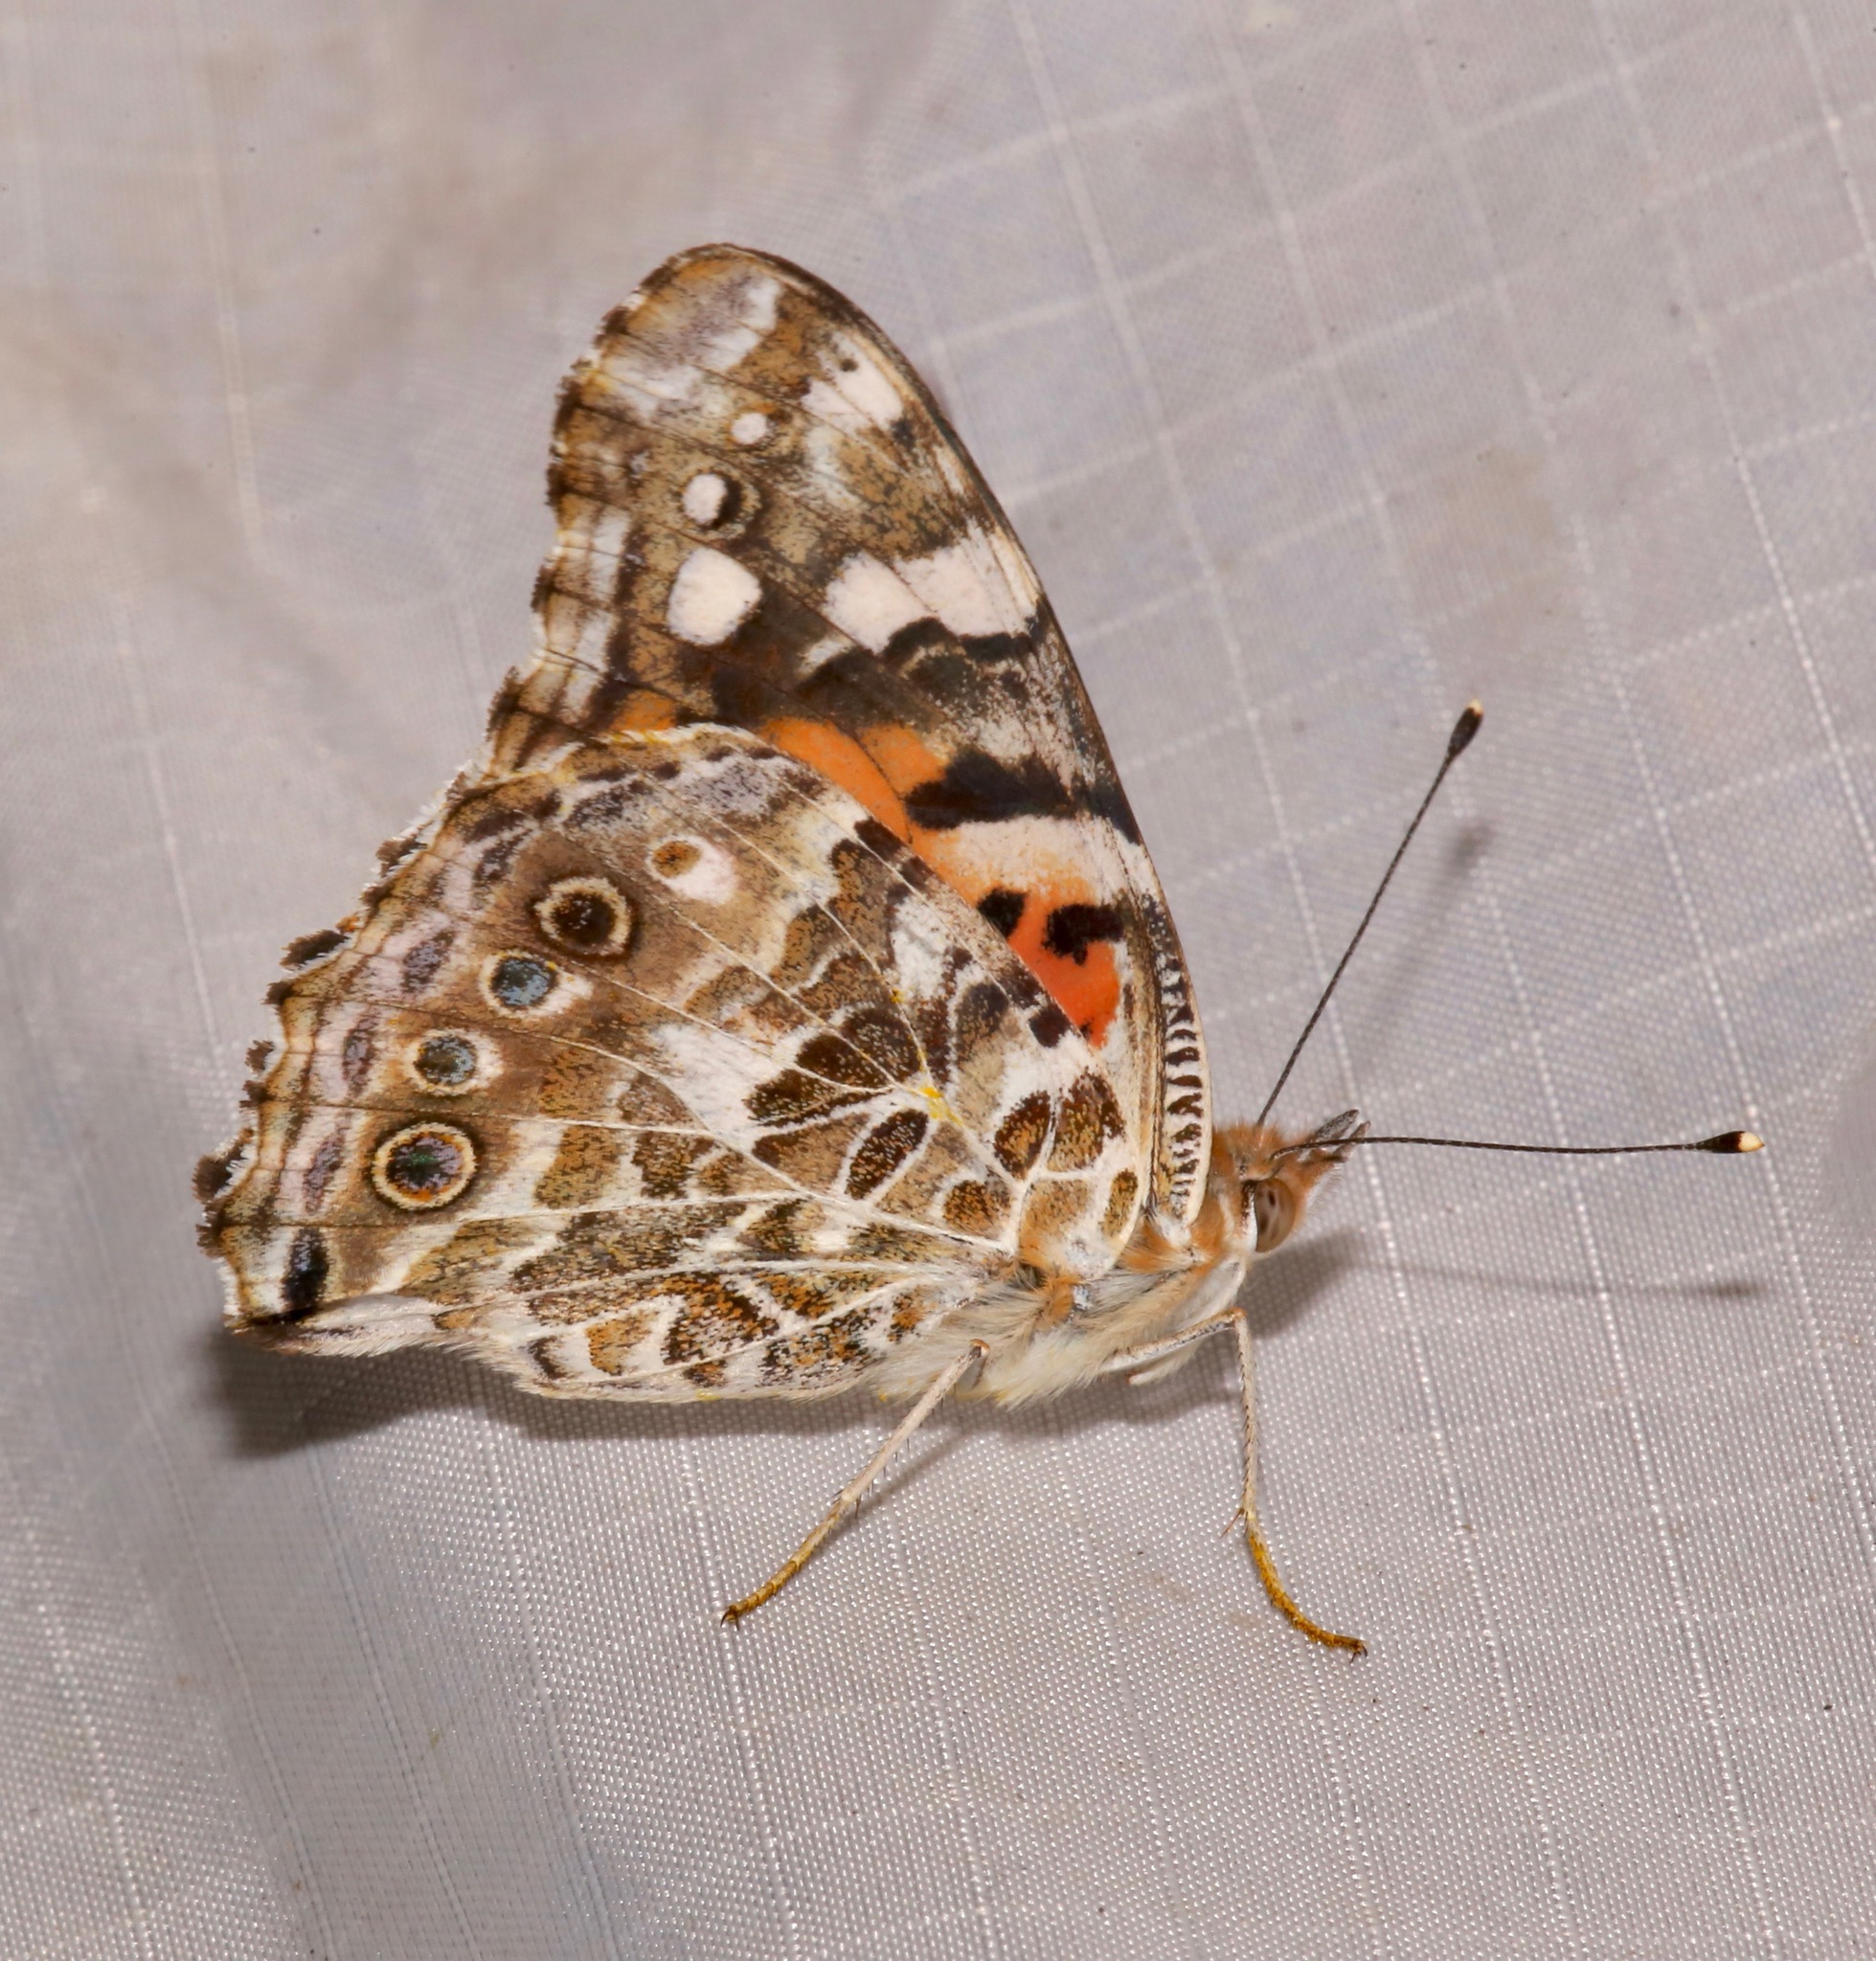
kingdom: Animalia
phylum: Arthropoda
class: Insecta
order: Lepidoptera
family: Nymphalidae
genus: Vanessa
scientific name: Vanessa cardui
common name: Painted lady
